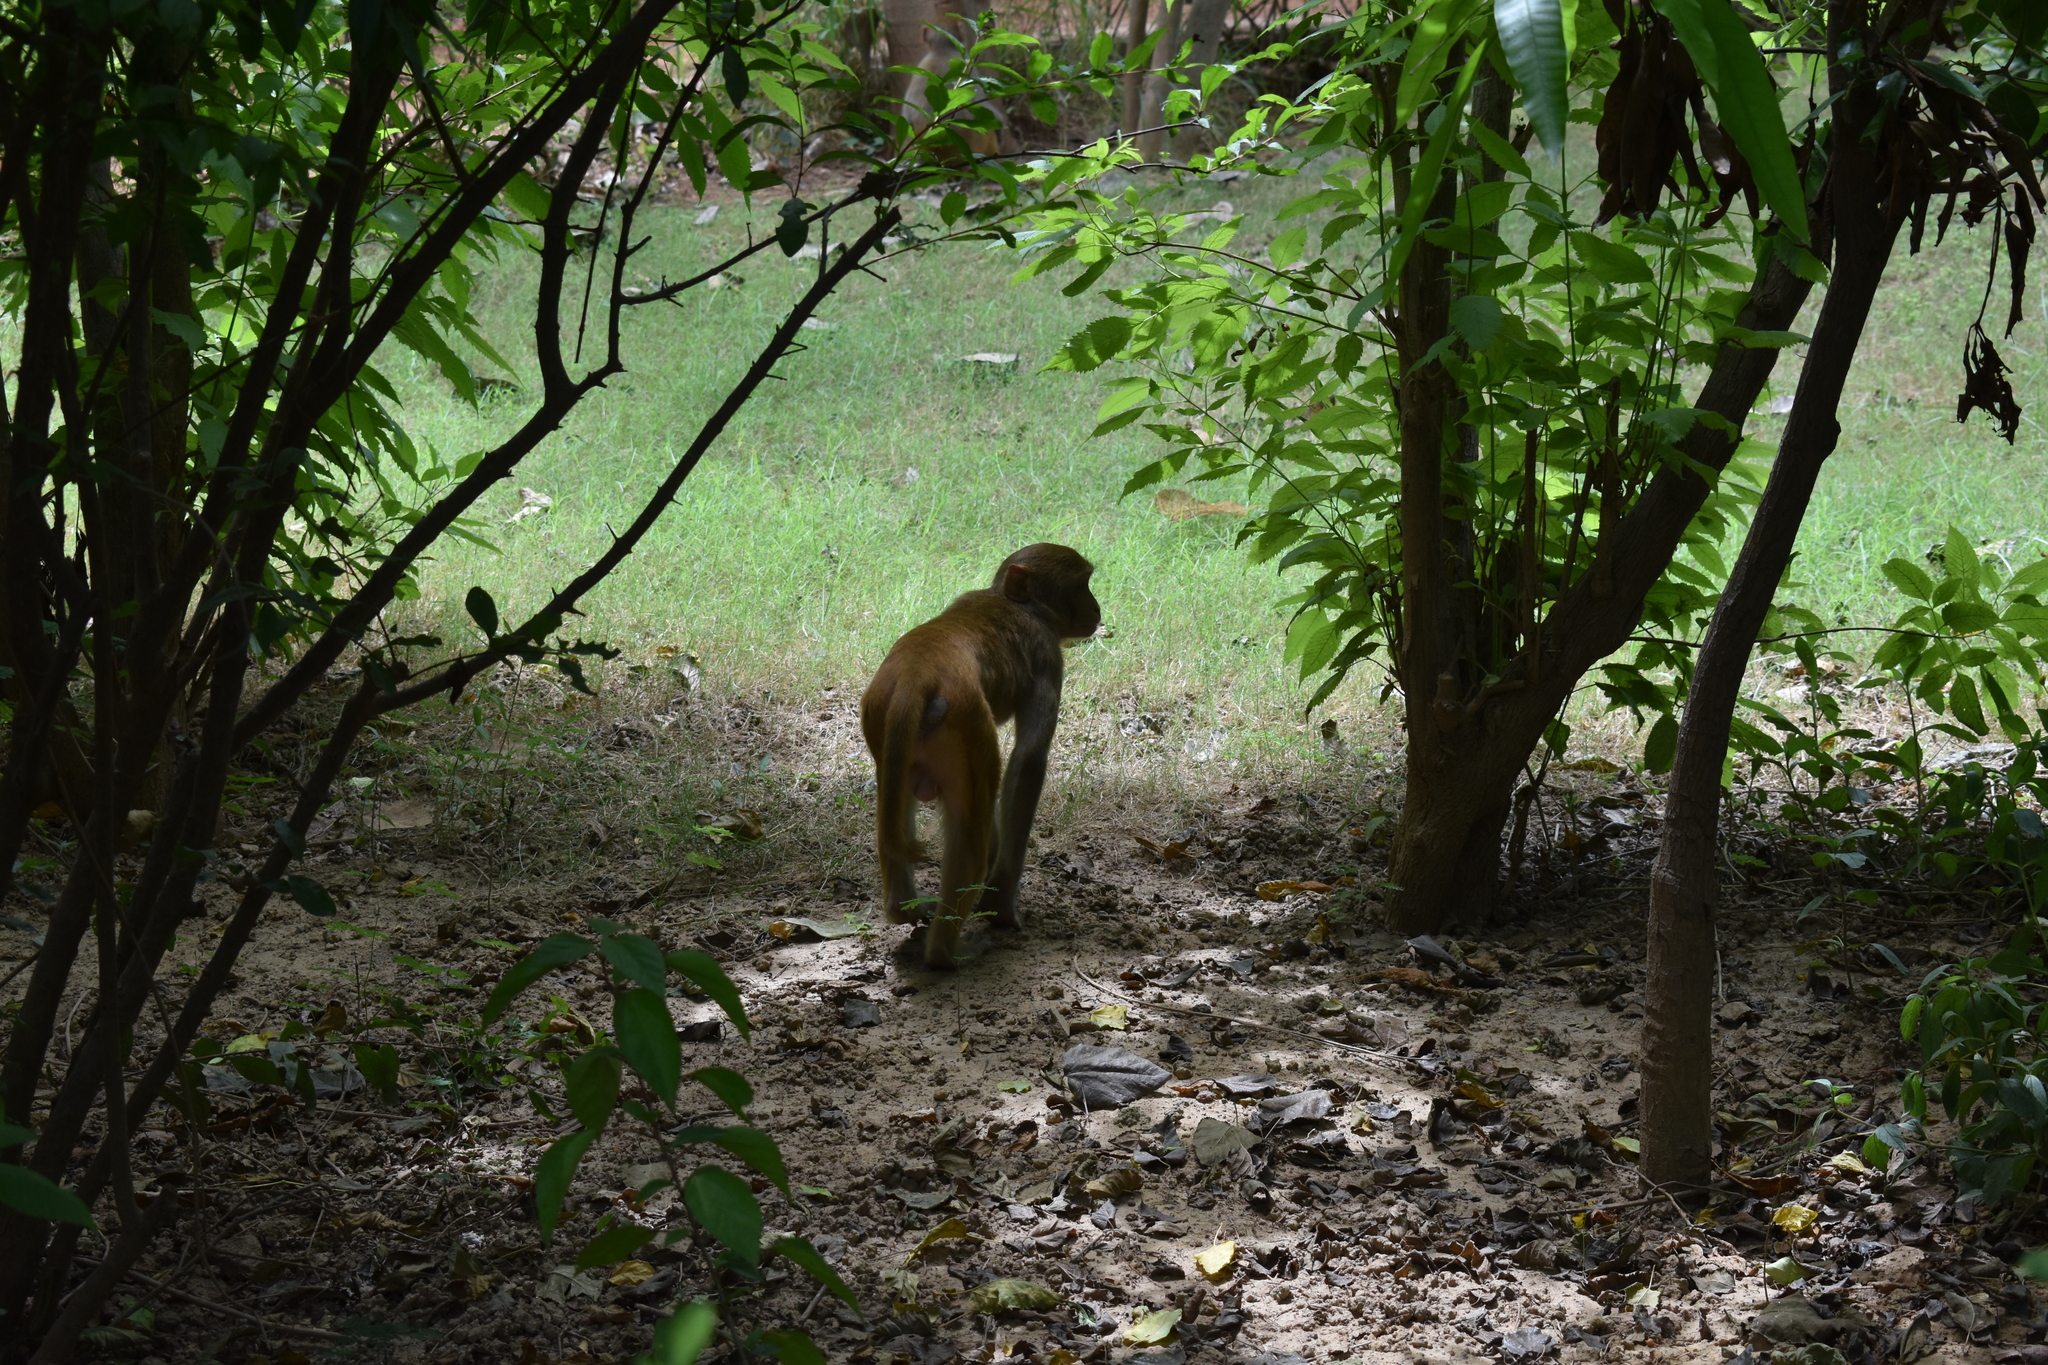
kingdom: Animalia
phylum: Chordata
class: Mammalia
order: Primates
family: Cercopithecidae
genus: Macaca
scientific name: Macaca mulatta
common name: Rhesus monkey
